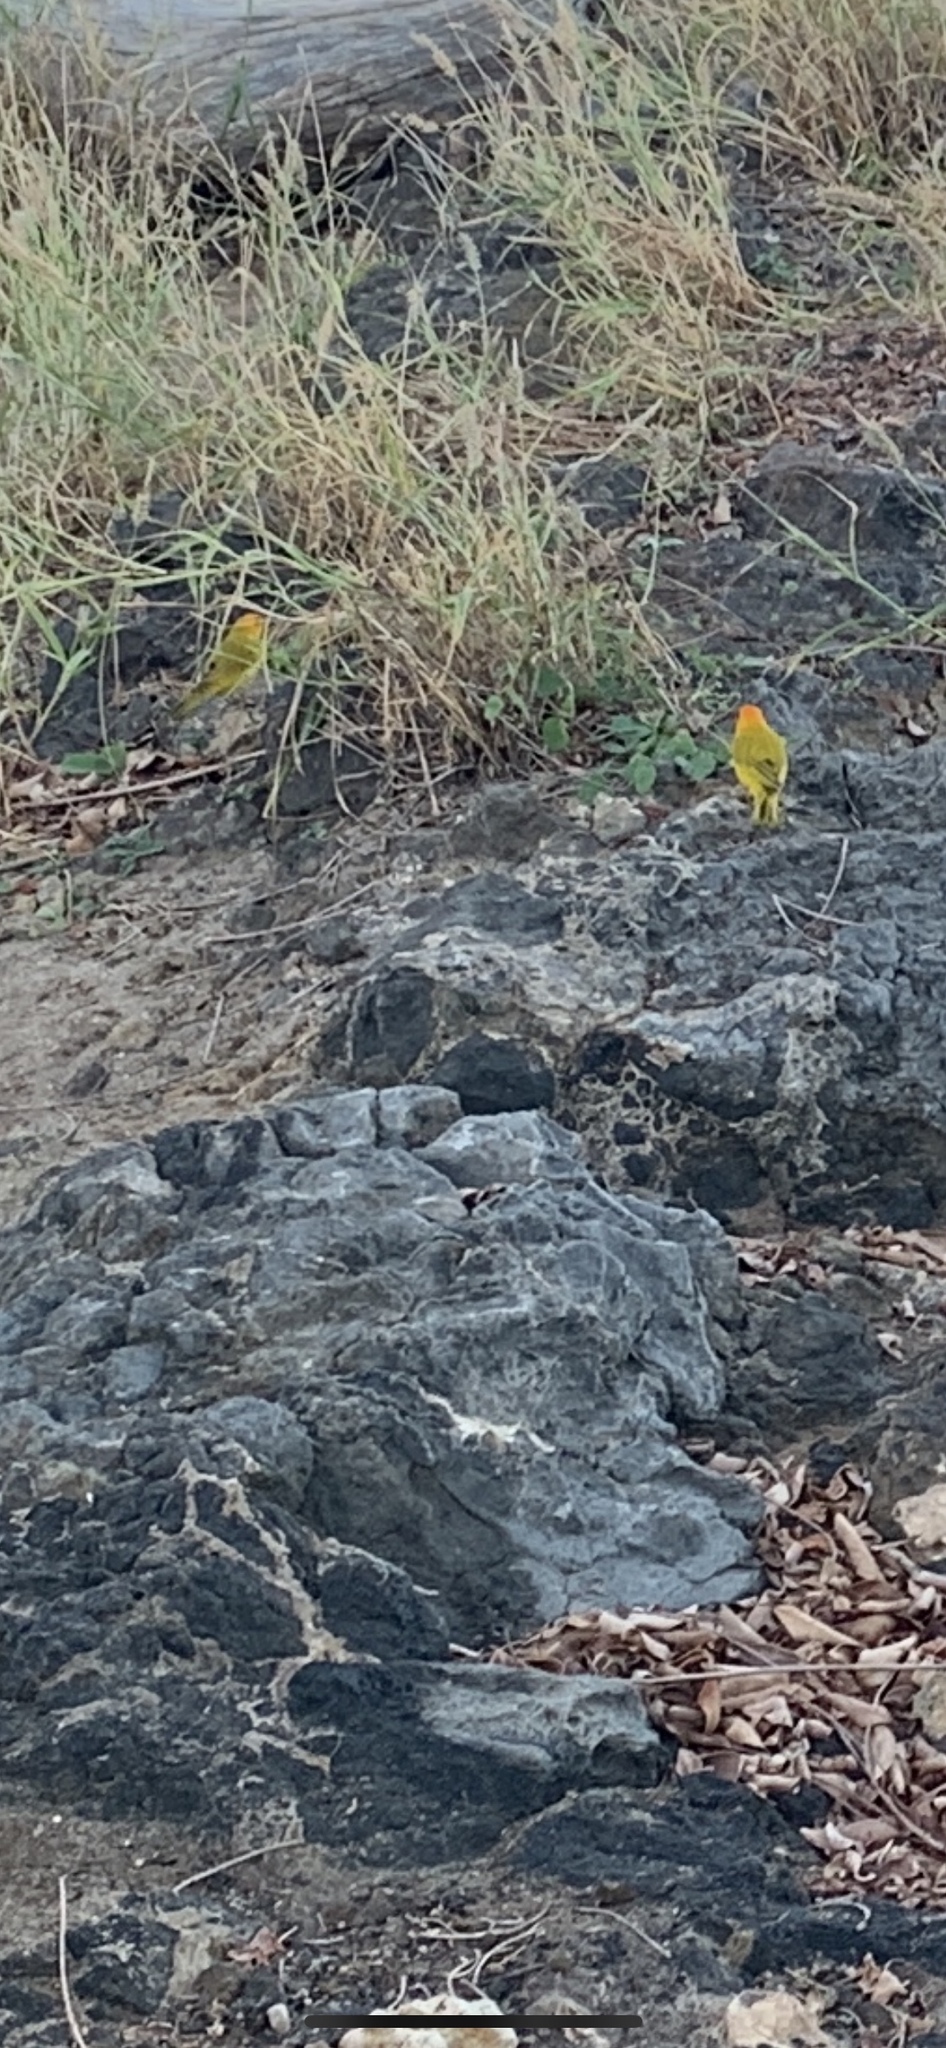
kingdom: Animalia
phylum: Chordata
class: Aves
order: Passeriformes
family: Thraupidae
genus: Sicalis
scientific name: Sicalis flaveola
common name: Saffron finch
